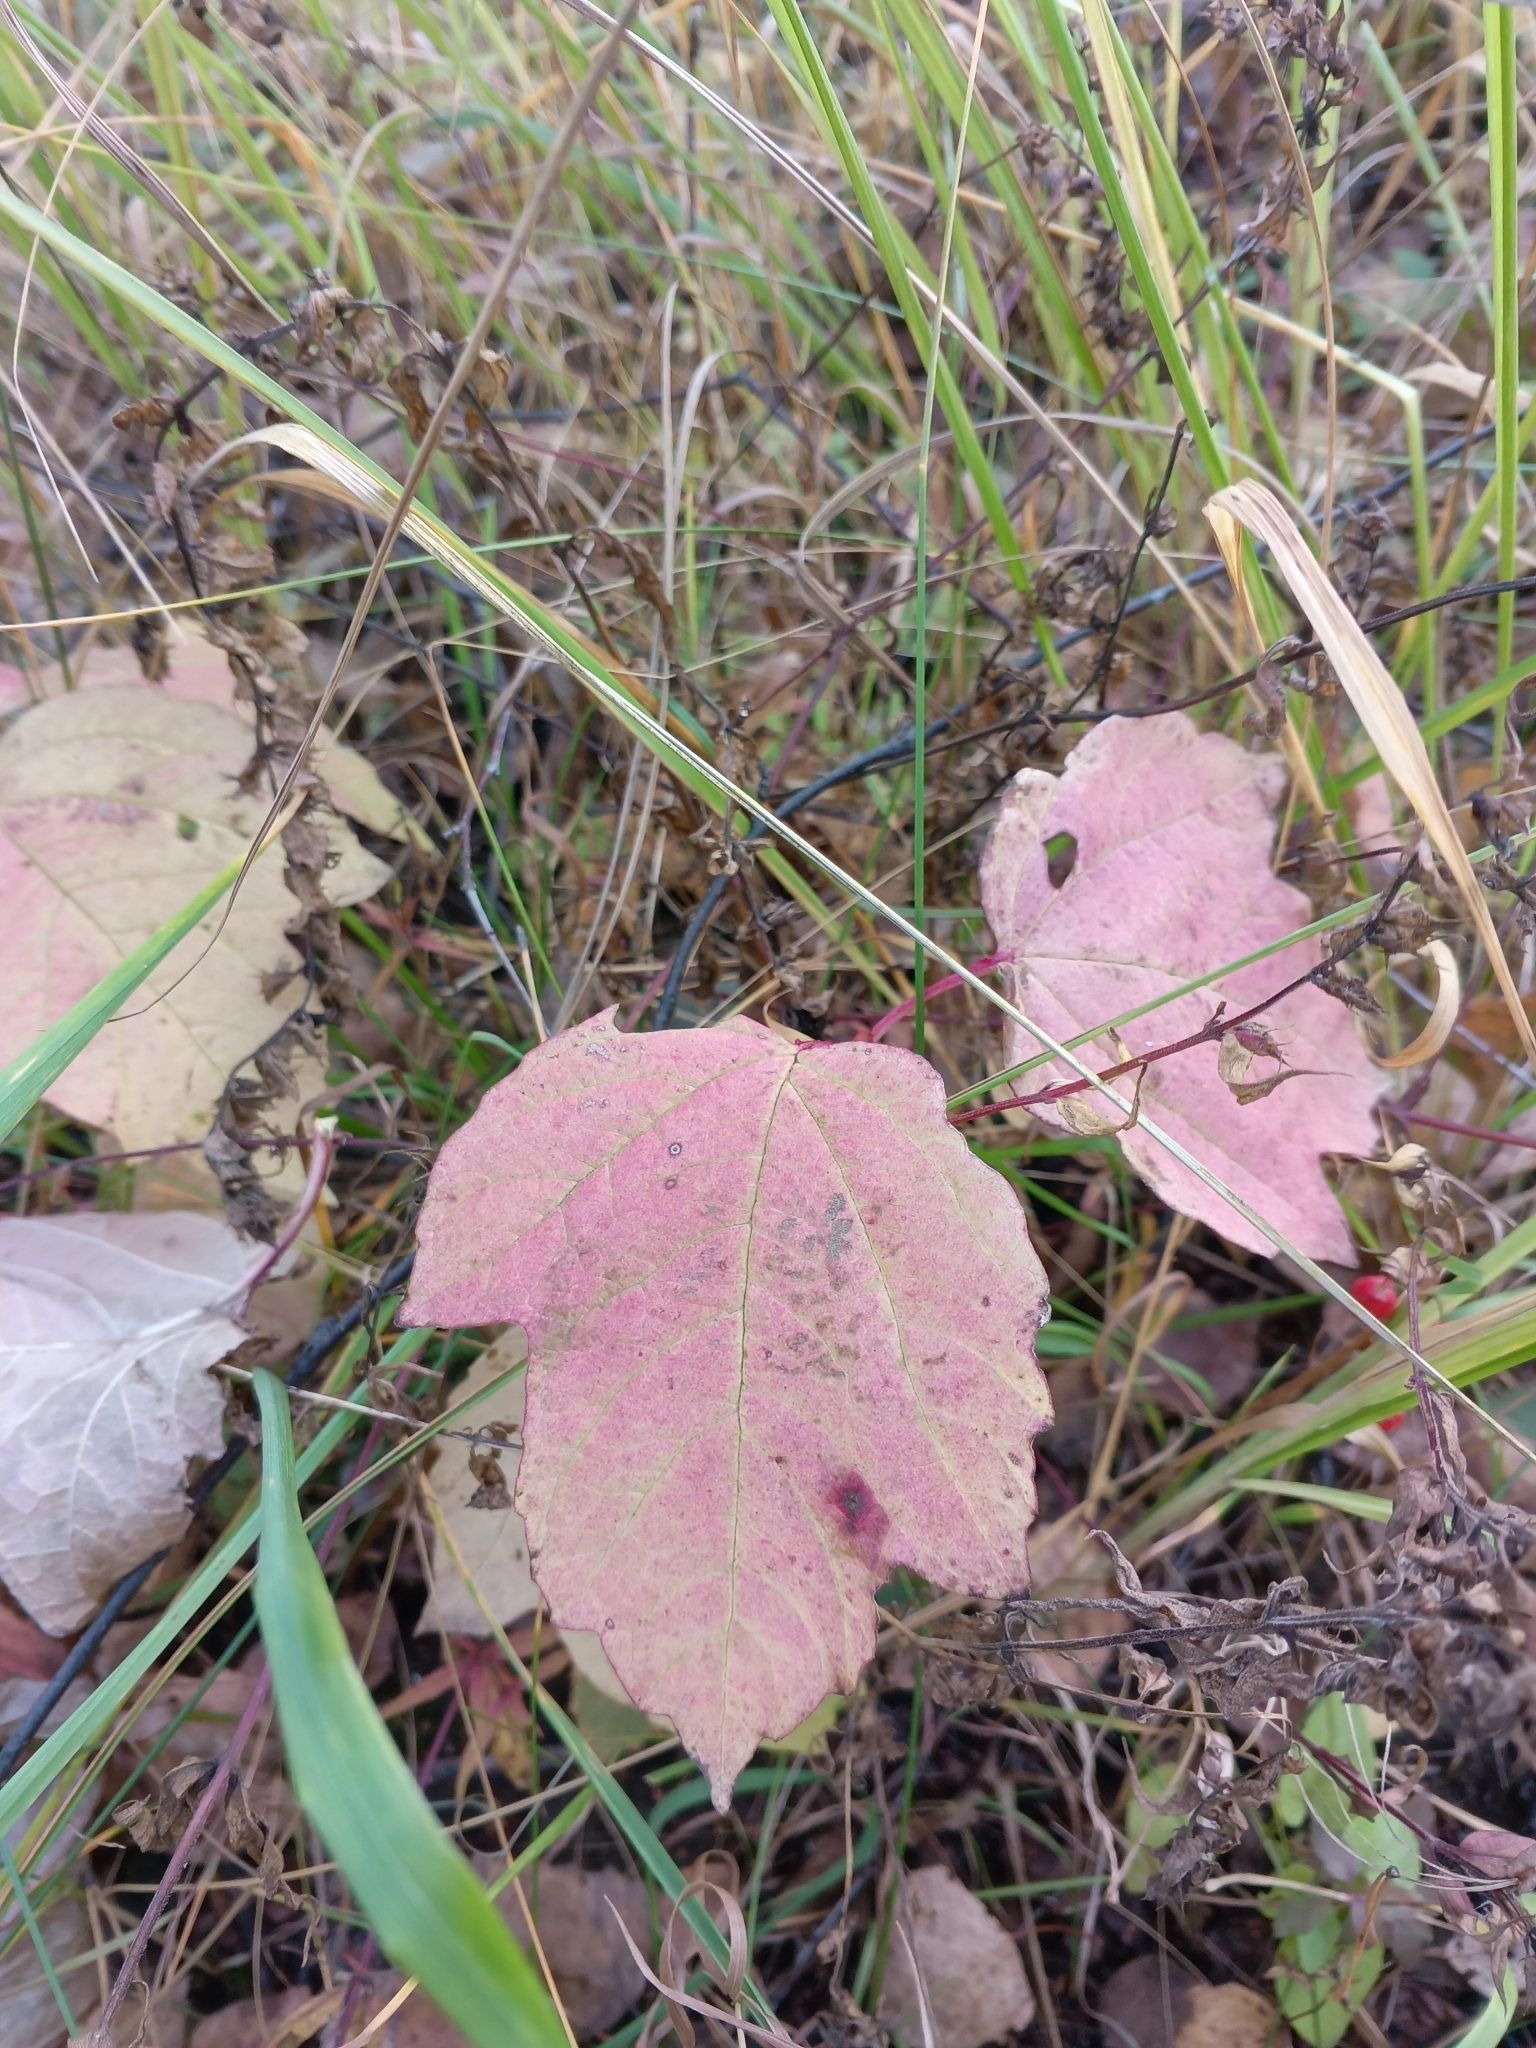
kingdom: Plantae
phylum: Tracheophyta
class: Magnoliopsida
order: Dipsacales
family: Viburnaceae
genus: Viburnum
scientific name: Viburnum opulus
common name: Guelder-rose
